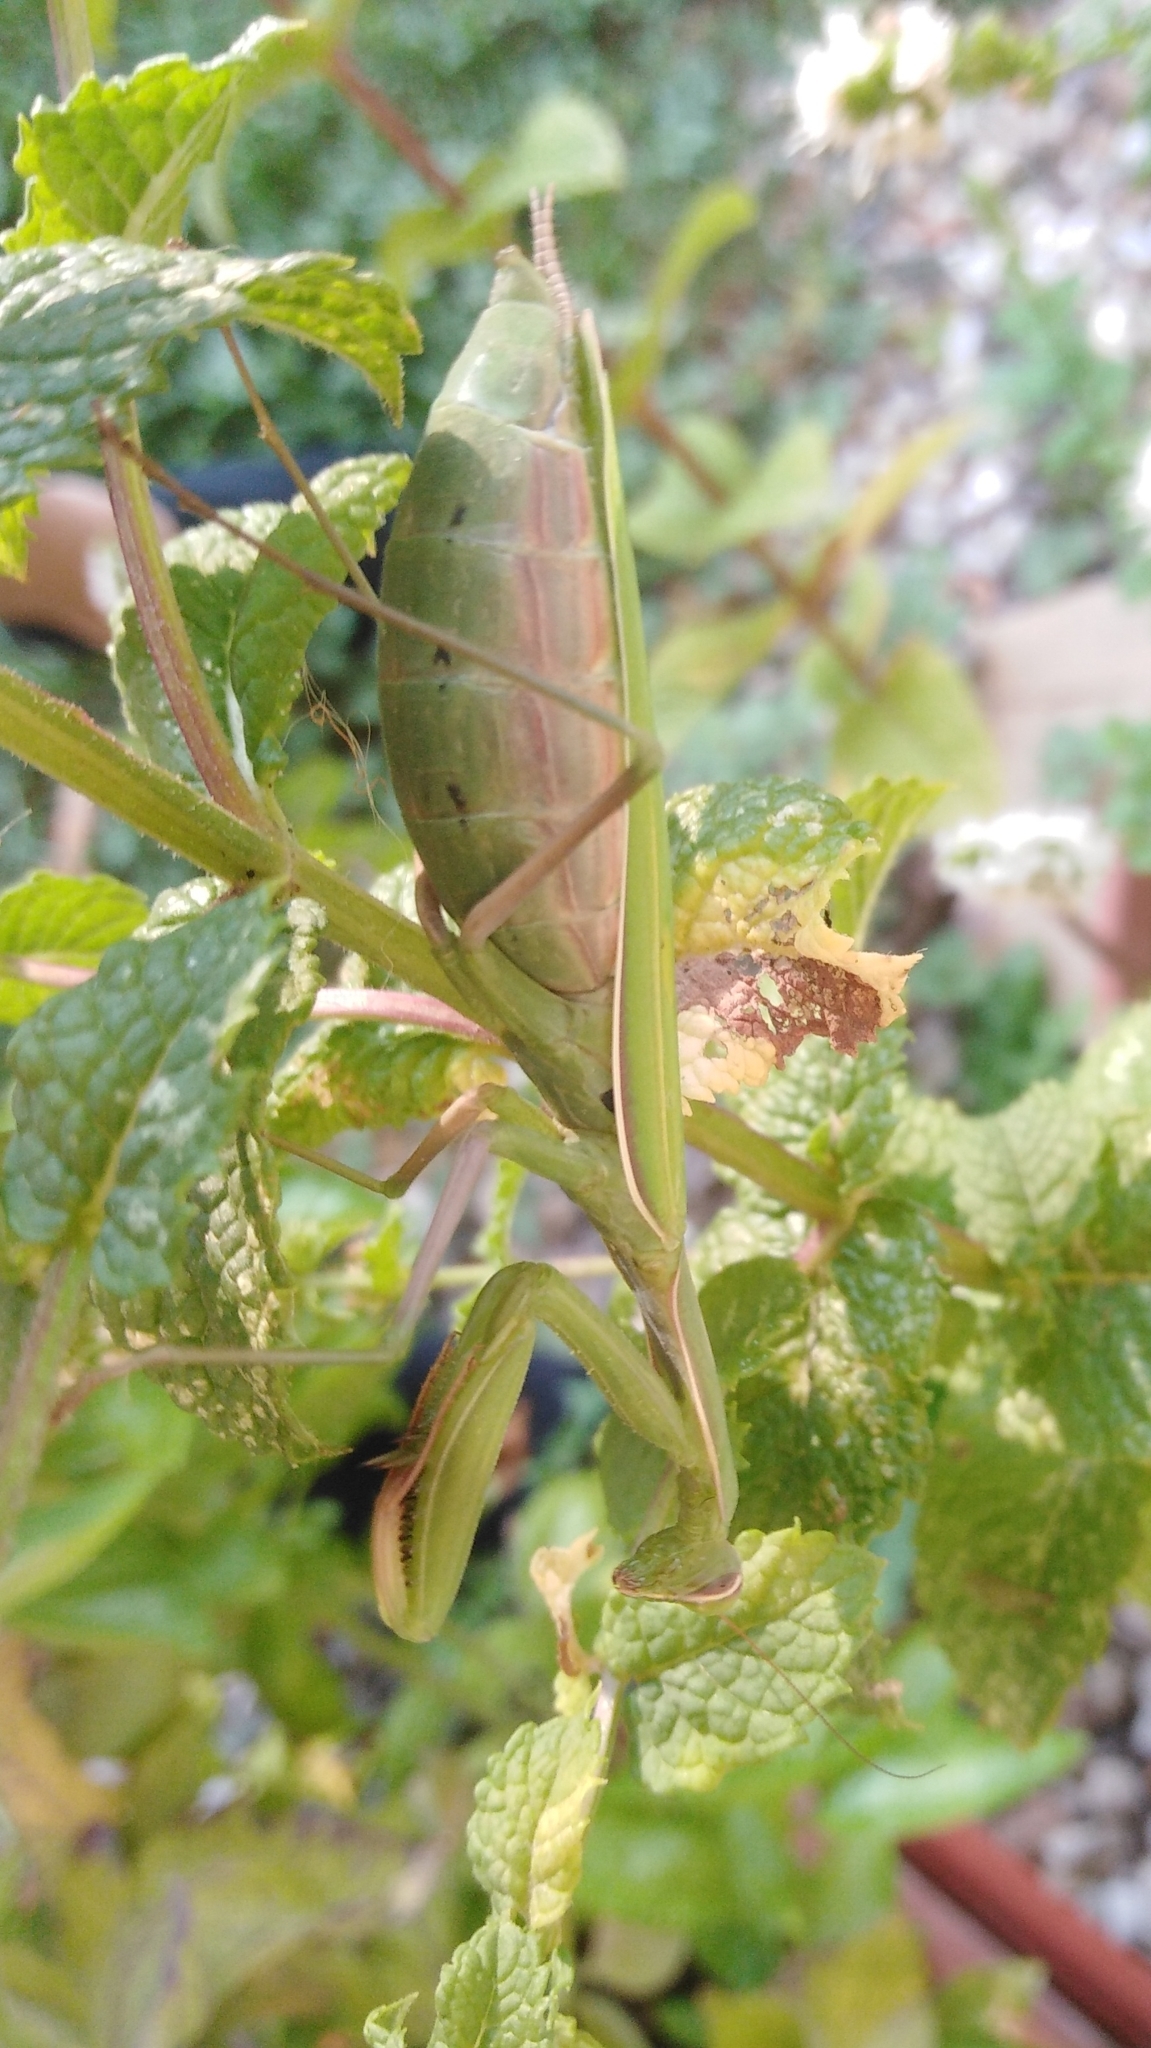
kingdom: Animalia
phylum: Arthropoda
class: Insecta
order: Mantodea
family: Mantidae
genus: Mantis
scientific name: Mantis religiosa
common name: Praying mantis
